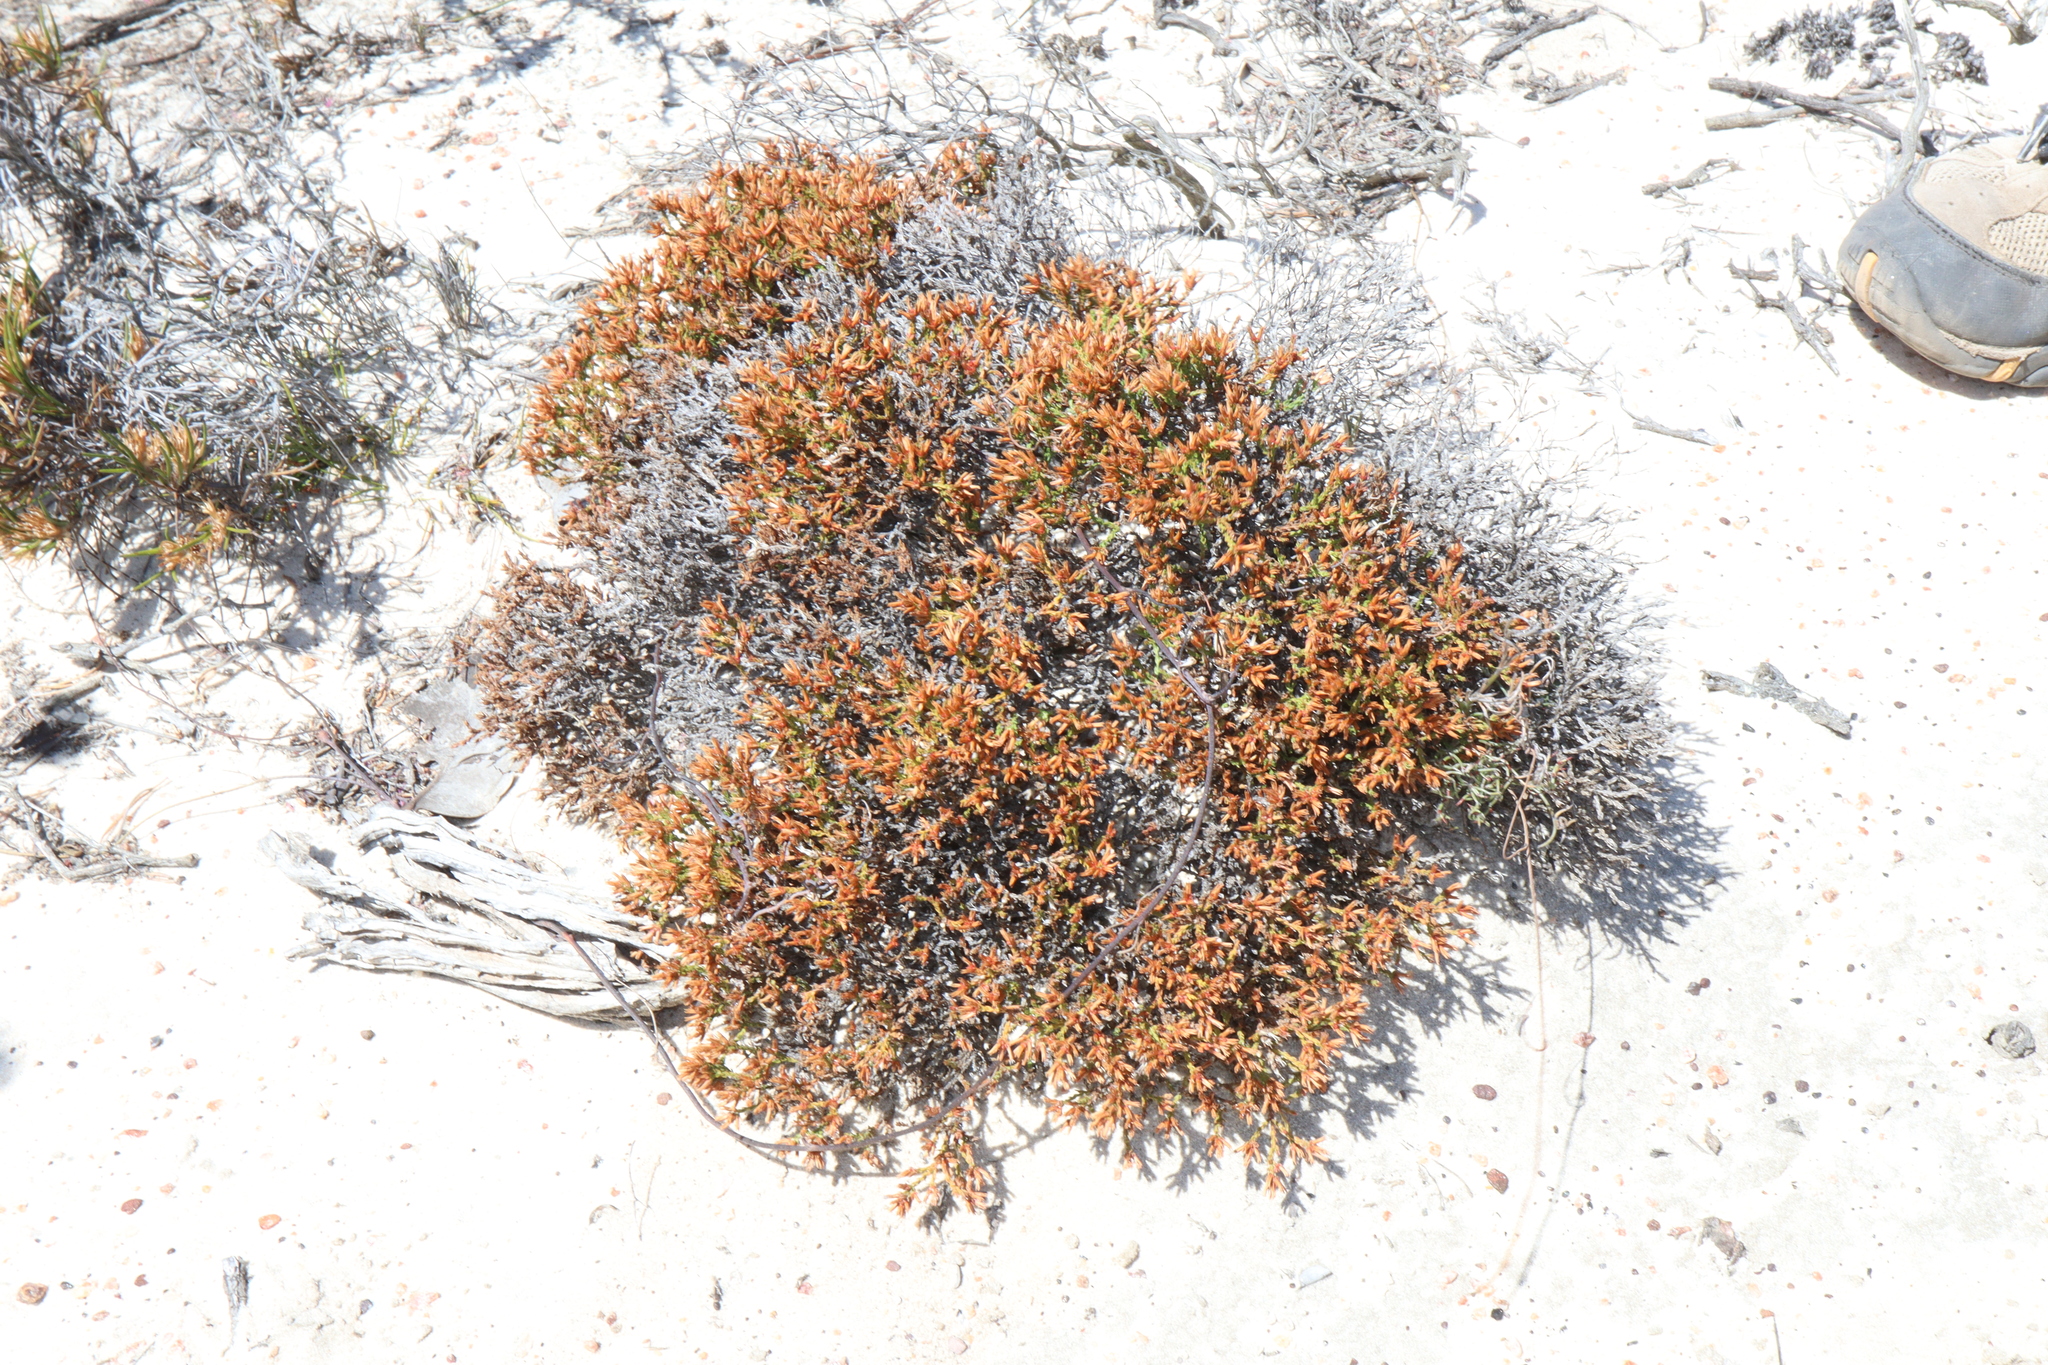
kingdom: Plantae
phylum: Tracheophyta
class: Magnoliopsida
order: Ericales
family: Ericaceae
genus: Andersonia
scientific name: Andersonia parvifolia
